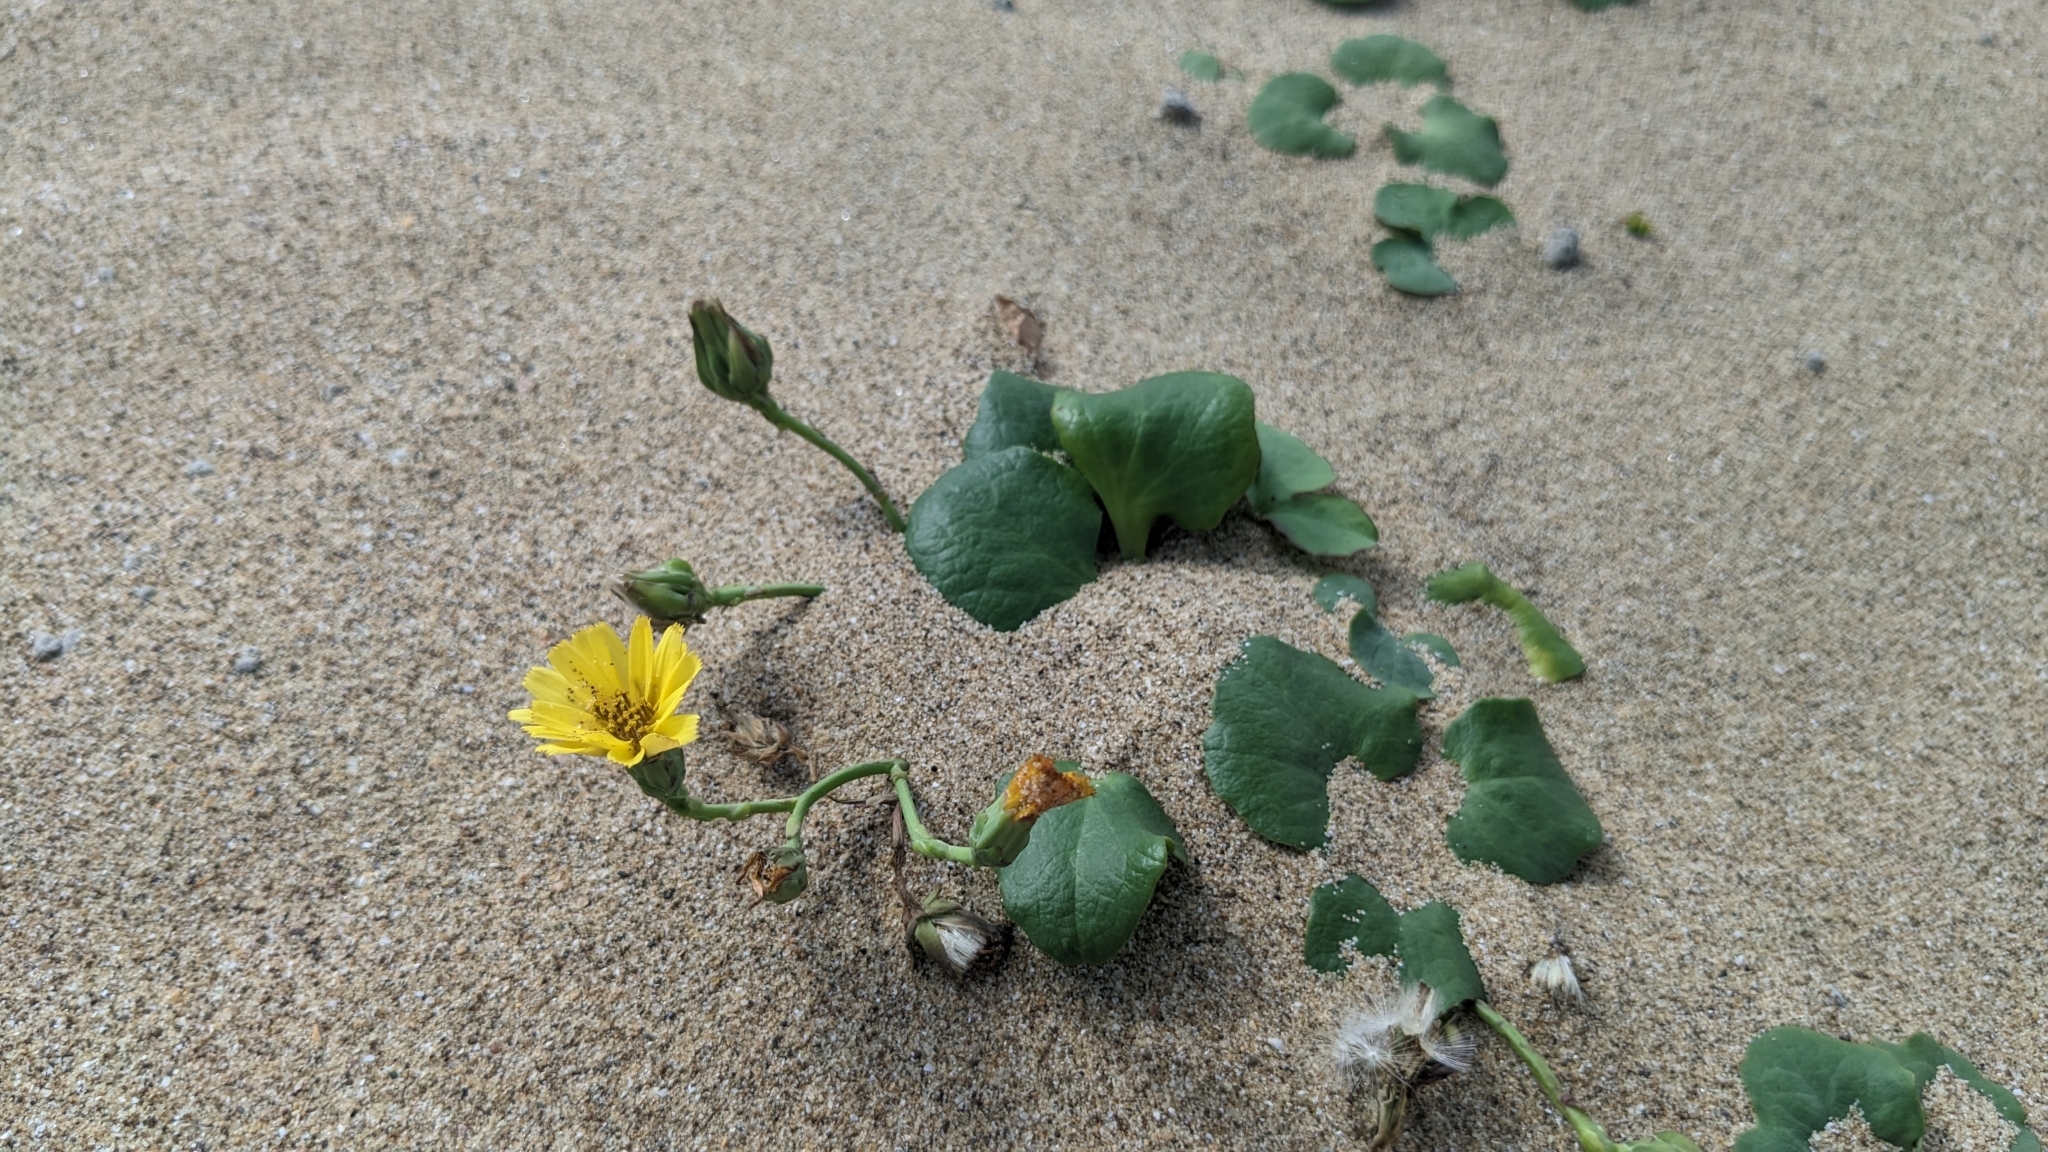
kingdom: Plantae
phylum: Tracheophyta
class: Magnoliopsida
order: Asterales
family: Asteraceae
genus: Ixeris
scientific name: Ixeris repens
